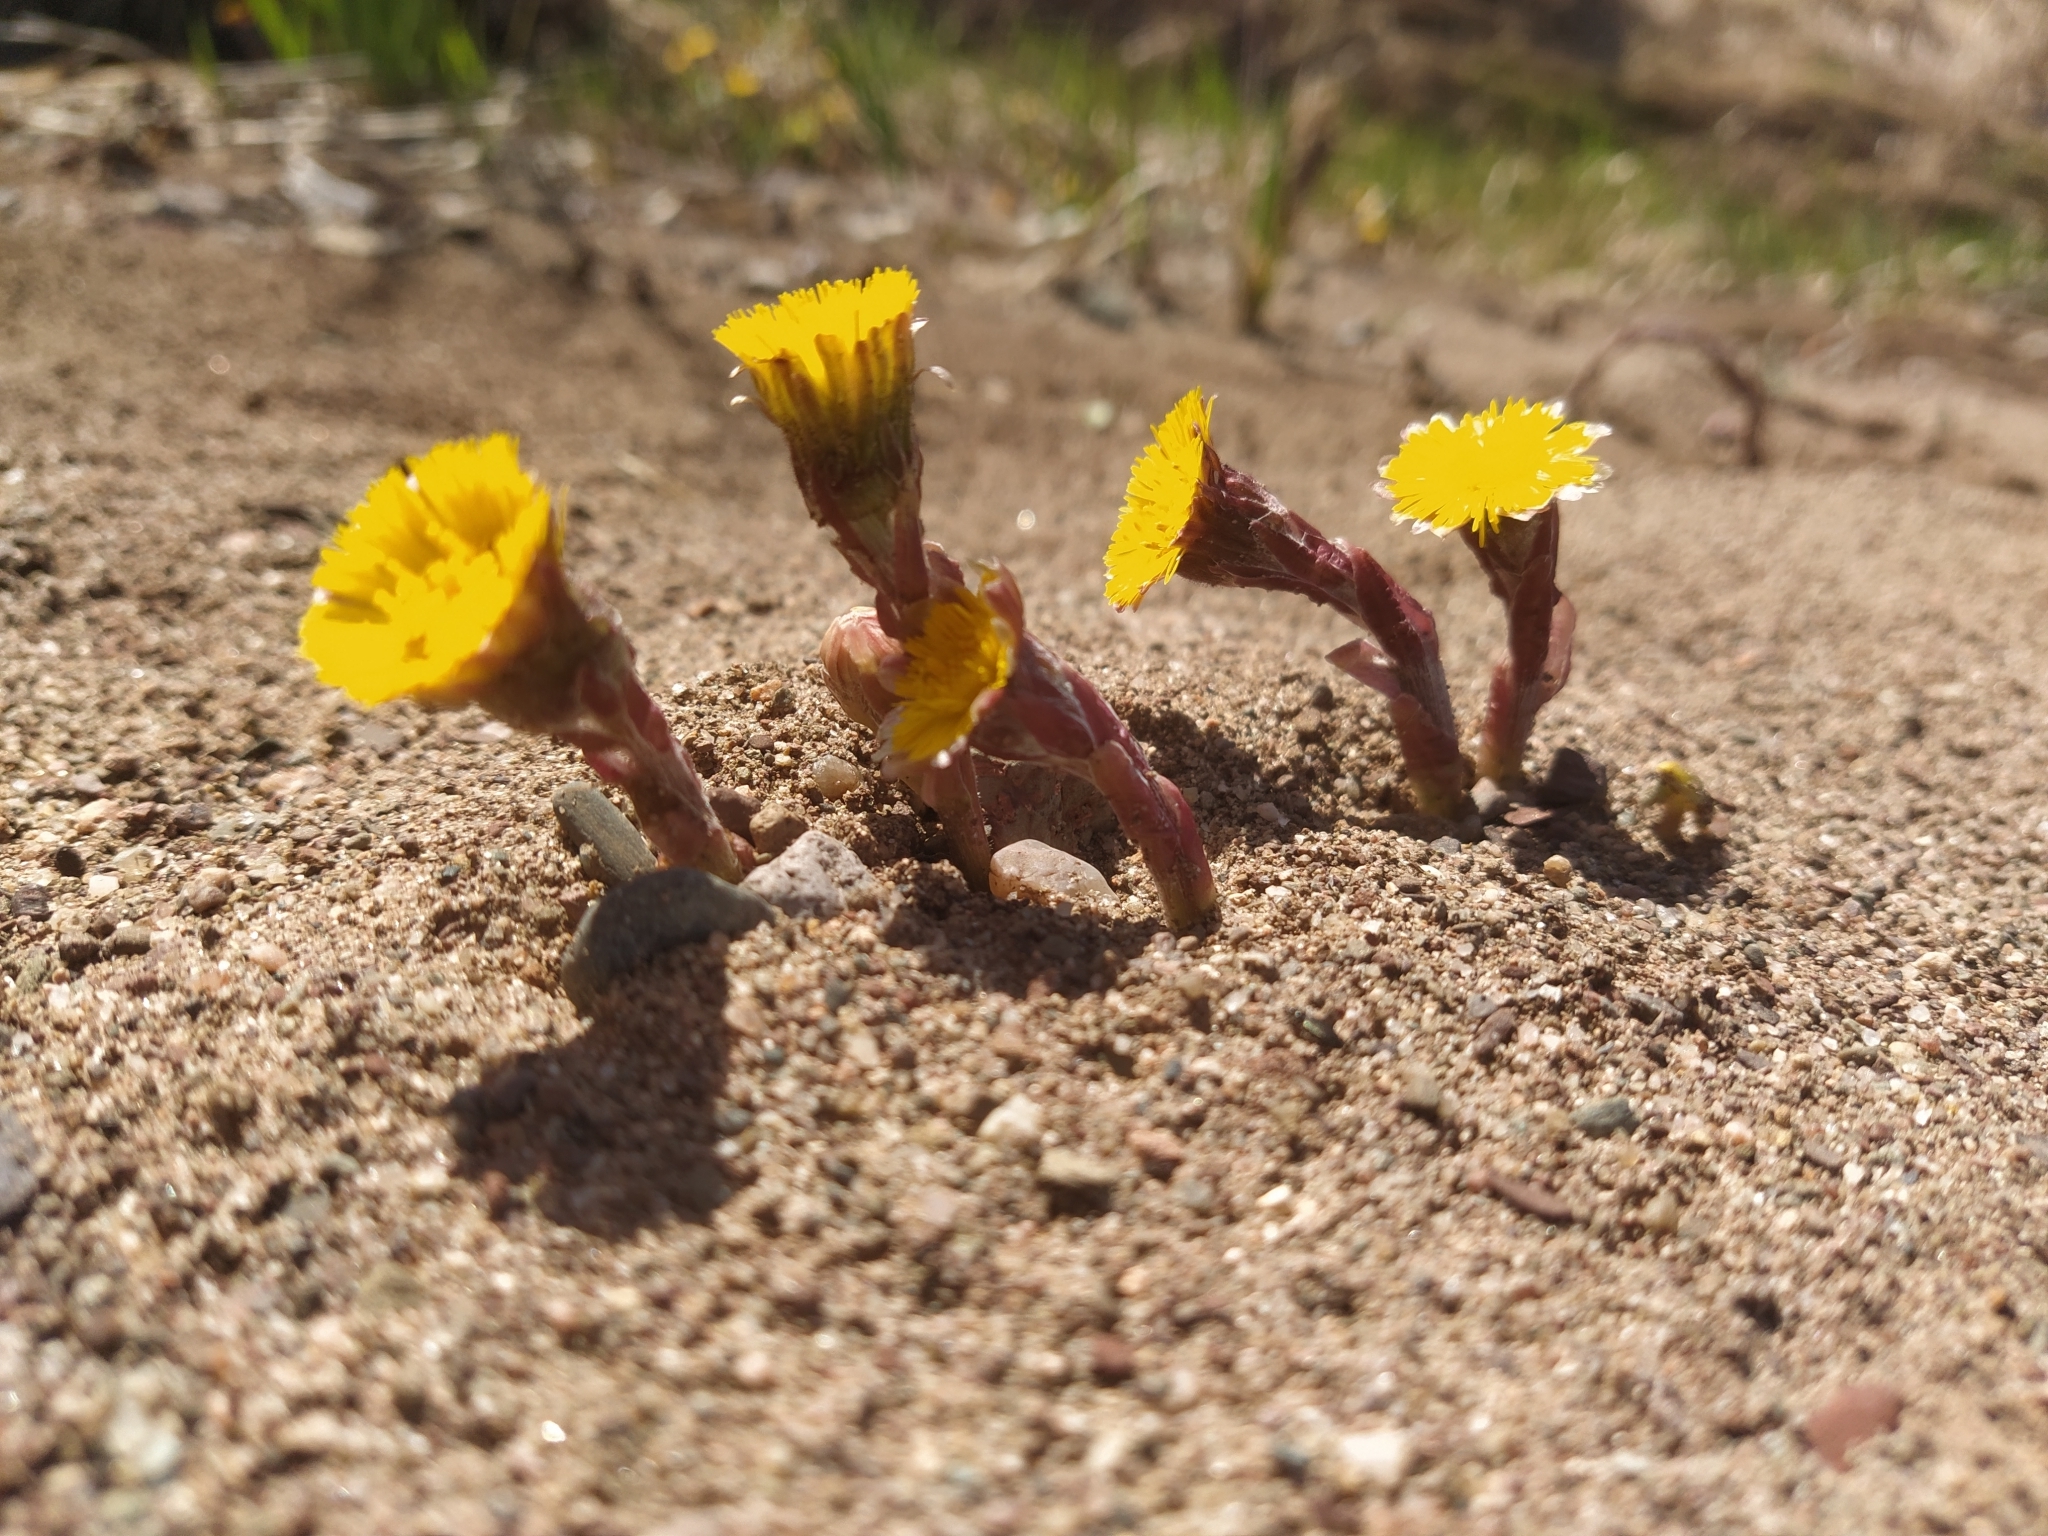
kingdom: Plantae
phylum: Tracheophyta
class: Magnoliopsida
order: Asterales
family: Asteraceae
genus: Tussilago
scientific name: Tussilago farfara
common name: Coltsfoot
